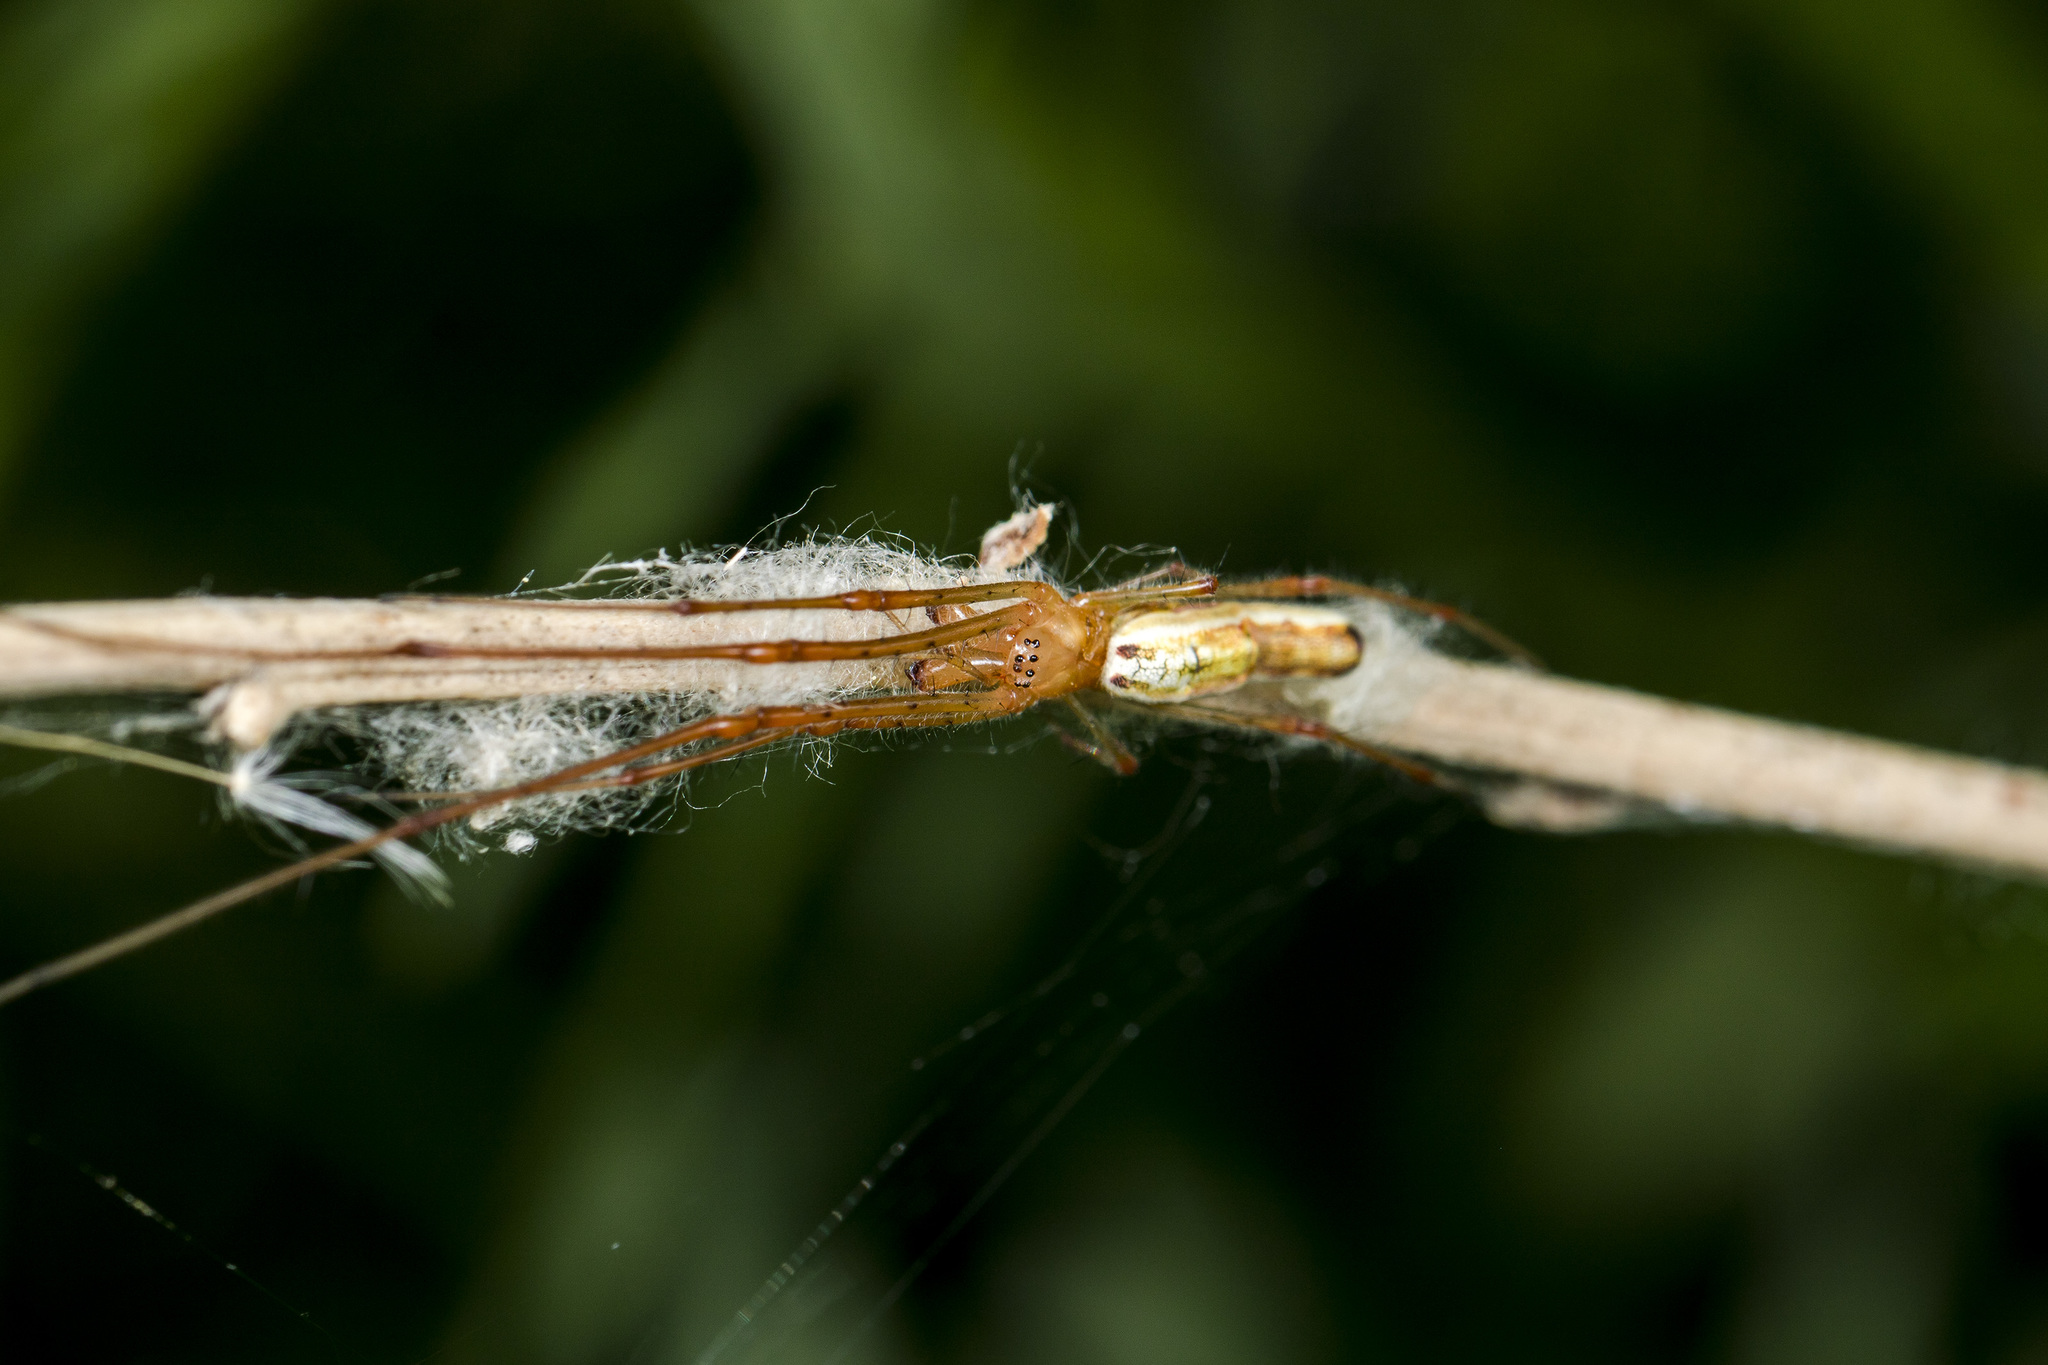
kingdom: Animalia
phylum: Arthropoda
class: Arachnida
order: Araneae
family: Tetragnathidae
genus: Tetragnatha
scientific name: Tetragnatha montana
